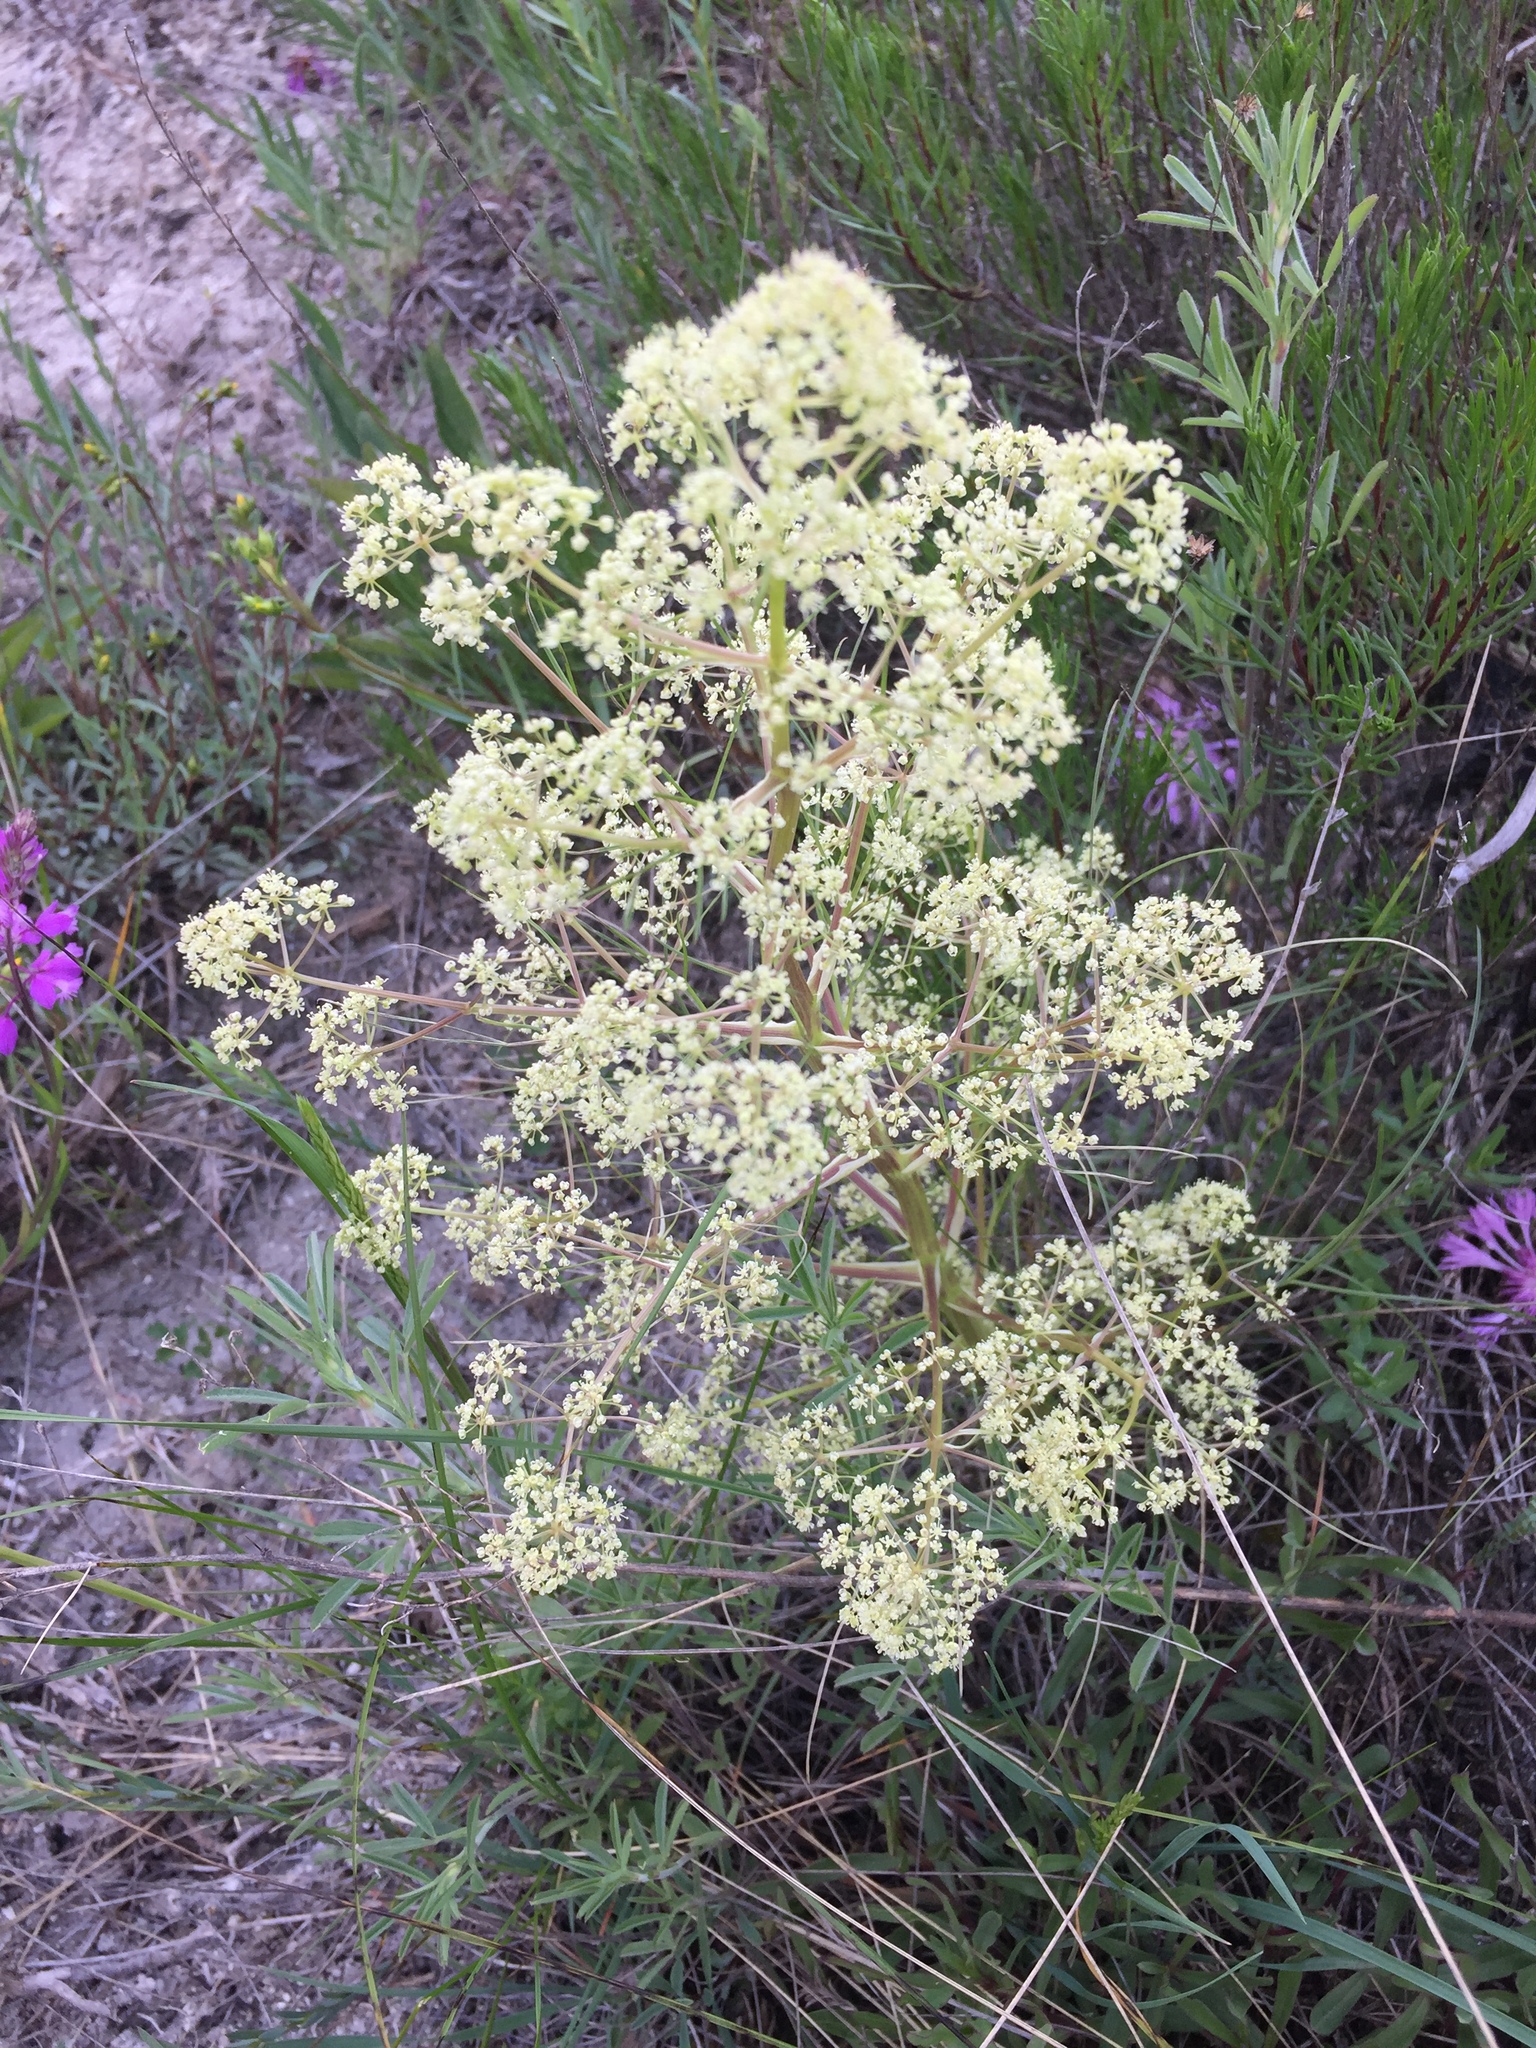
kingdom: Plantae
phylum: Tracheophyta
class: Magnoliopsida
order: Apiales
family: Apiaceae
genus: Trinia
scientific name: Trinia multicaulis
